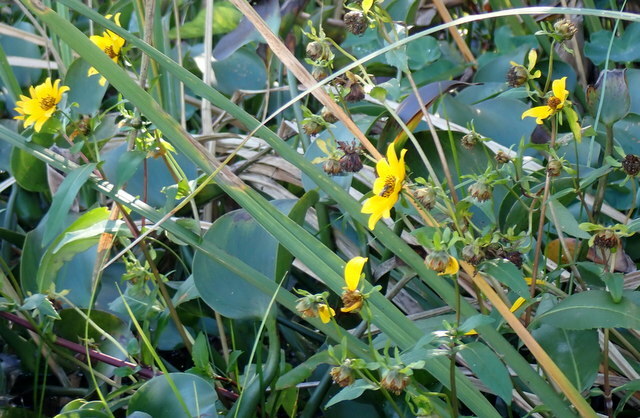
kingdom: Plantae
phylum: Tracheophyta
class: Magnoliopsida
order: Asterales
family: Asteraceae
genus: Bidens
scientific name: Bidens laevis
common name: Larger bur-marigold
